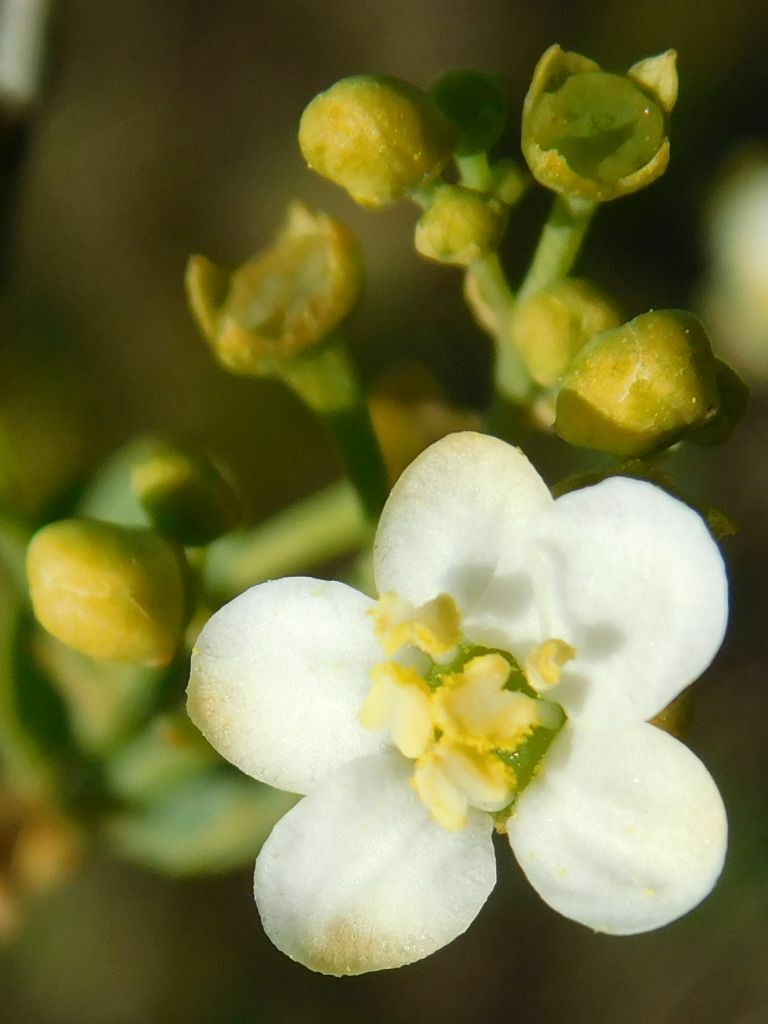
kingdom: Plantae
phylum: Tracheophyta
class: Magnoliopsida
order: Solanales
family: Montiniaceae
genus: Montinia
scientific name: Montinia caryophyllacea
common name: Wild clove-bush
